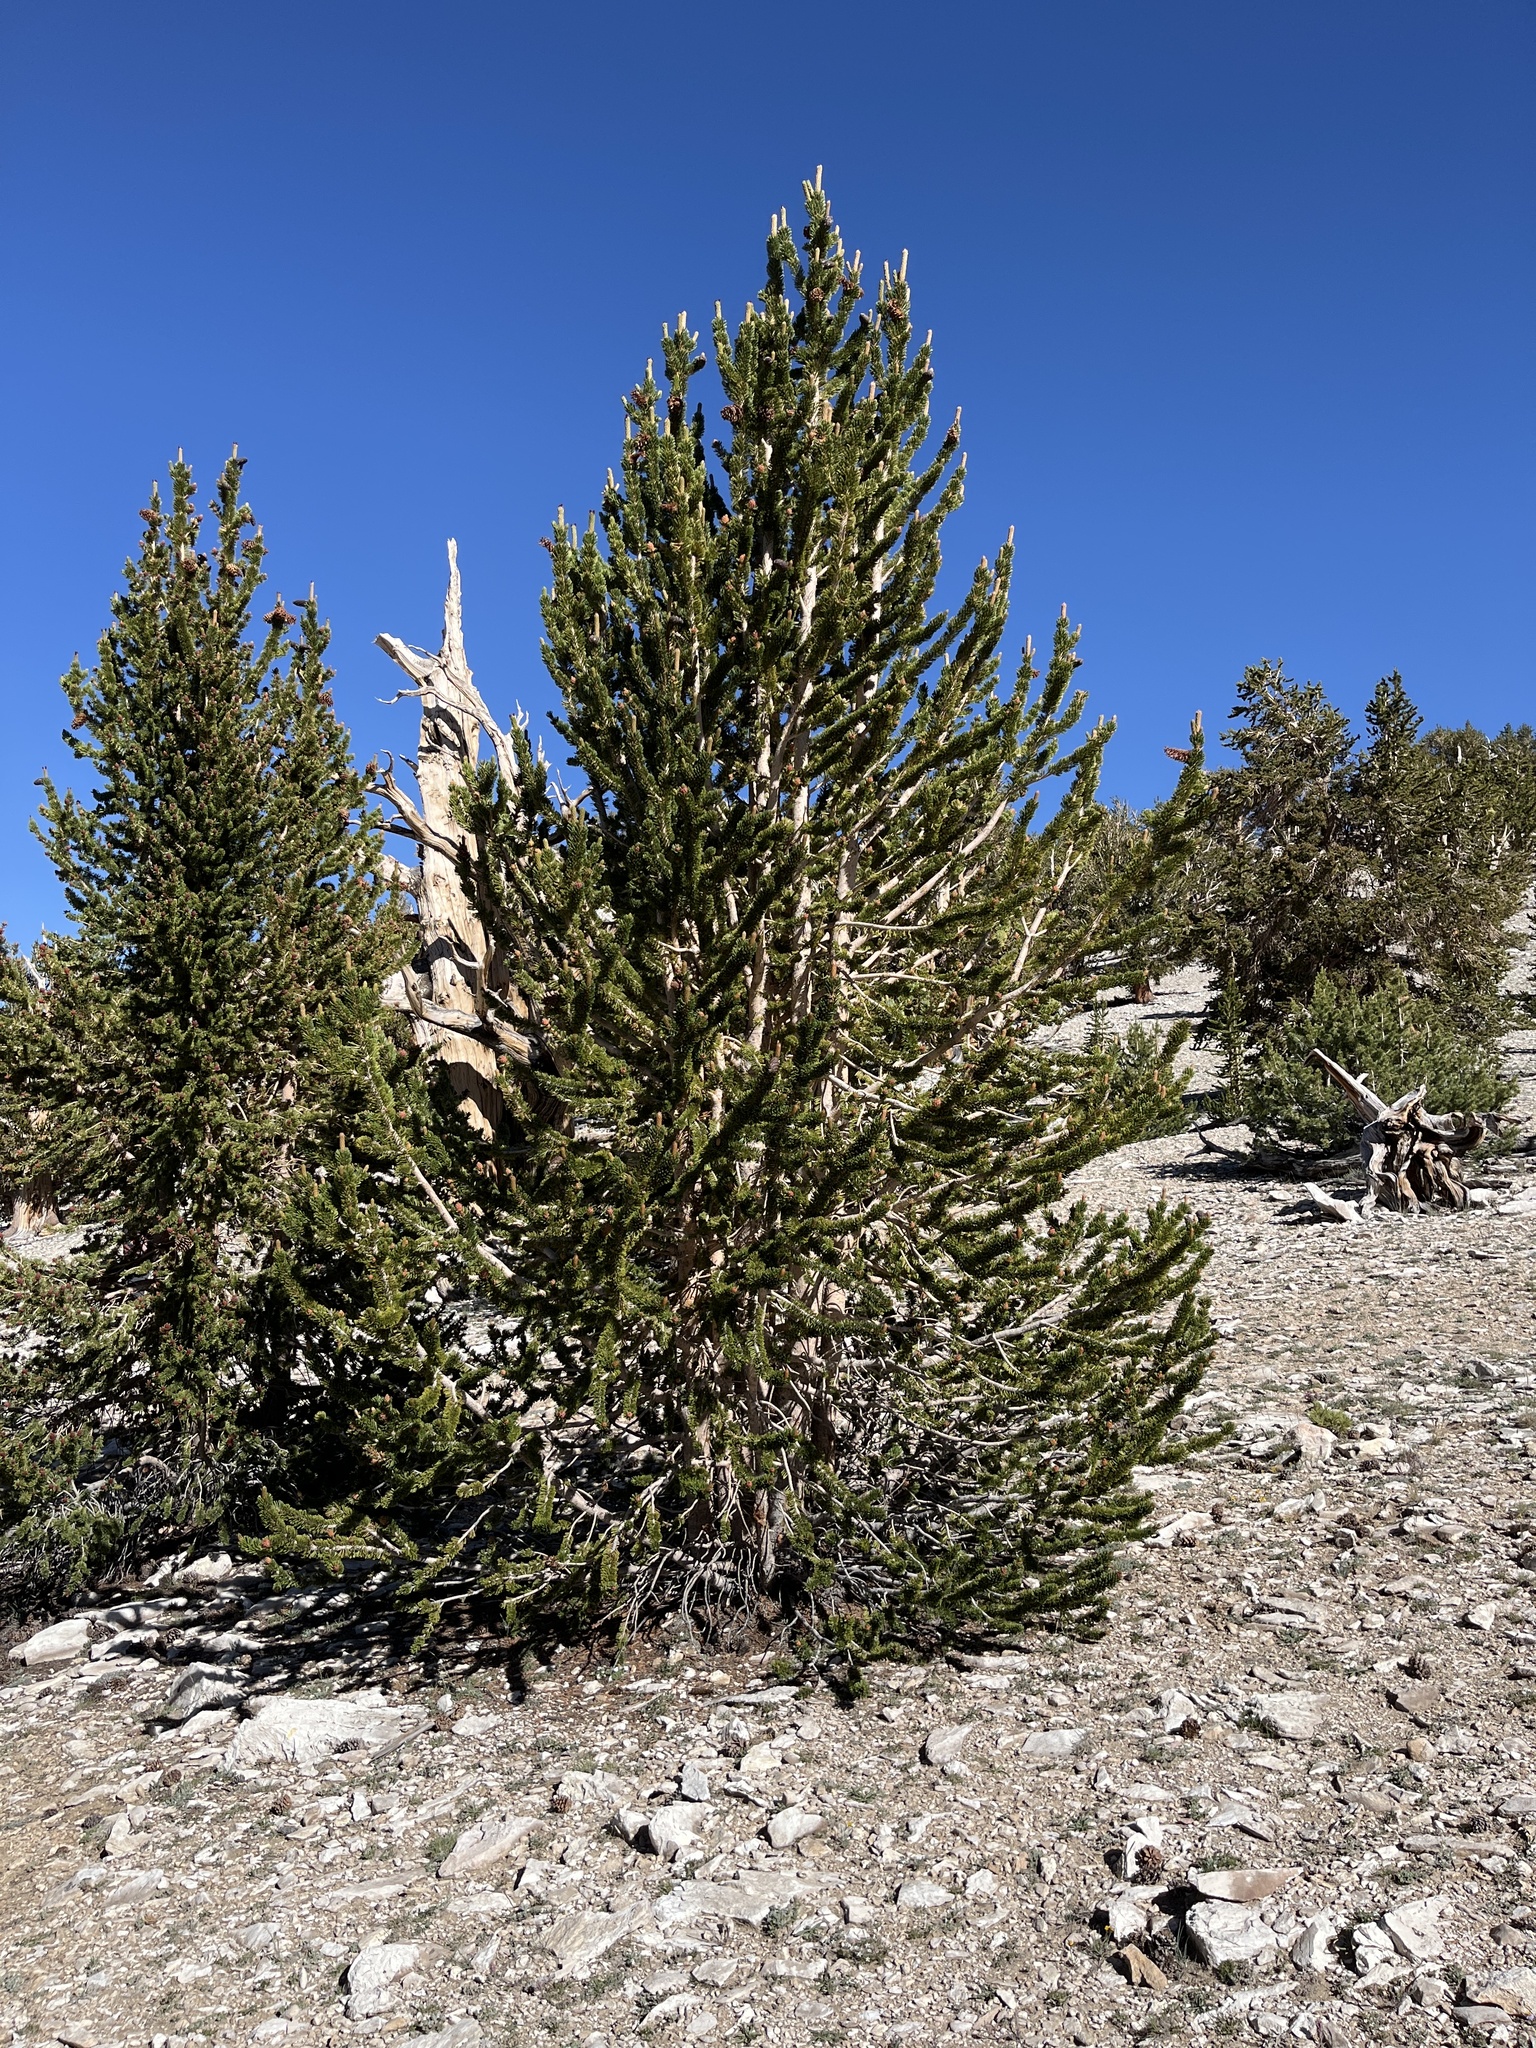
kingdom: Plantae
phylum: Tracheophyta
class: Pinopsida
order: Pinales
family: Pinaceae
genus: Pinus
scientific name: Pinus longaeva
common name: Intermountain bristlecone pine
